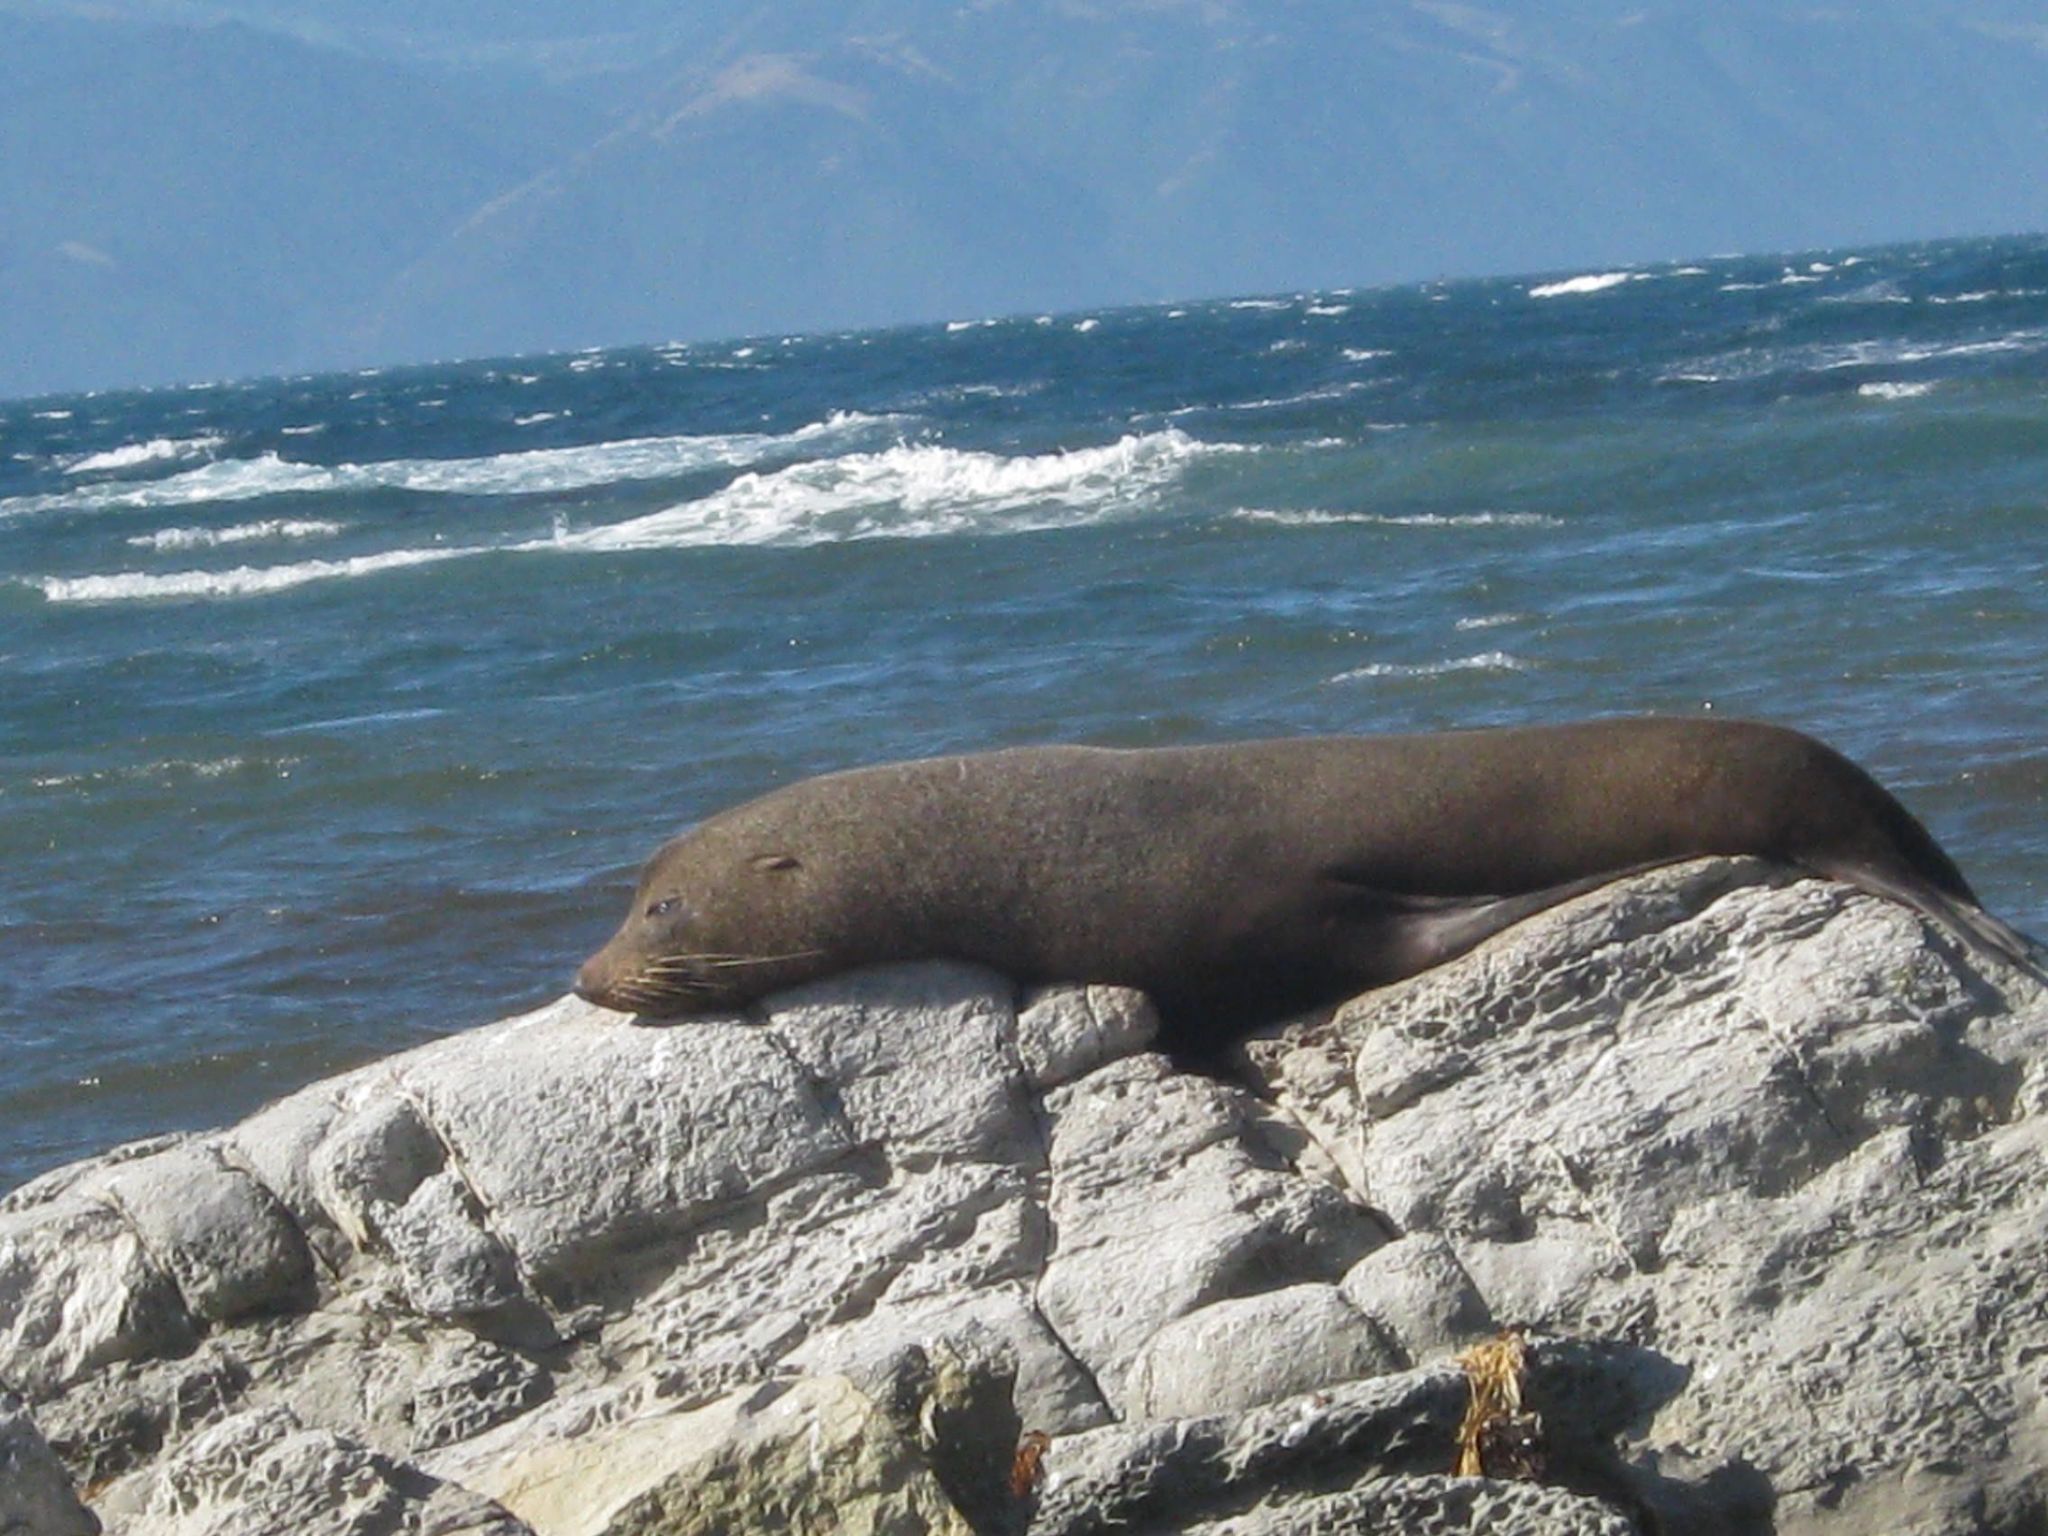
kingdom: Animalia
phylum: Chordata
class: Mammalia
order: Carnivora
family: Otariidae
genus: Arctocephalus
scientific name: Arctocephalus forsteri
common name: New zealand fur seal
